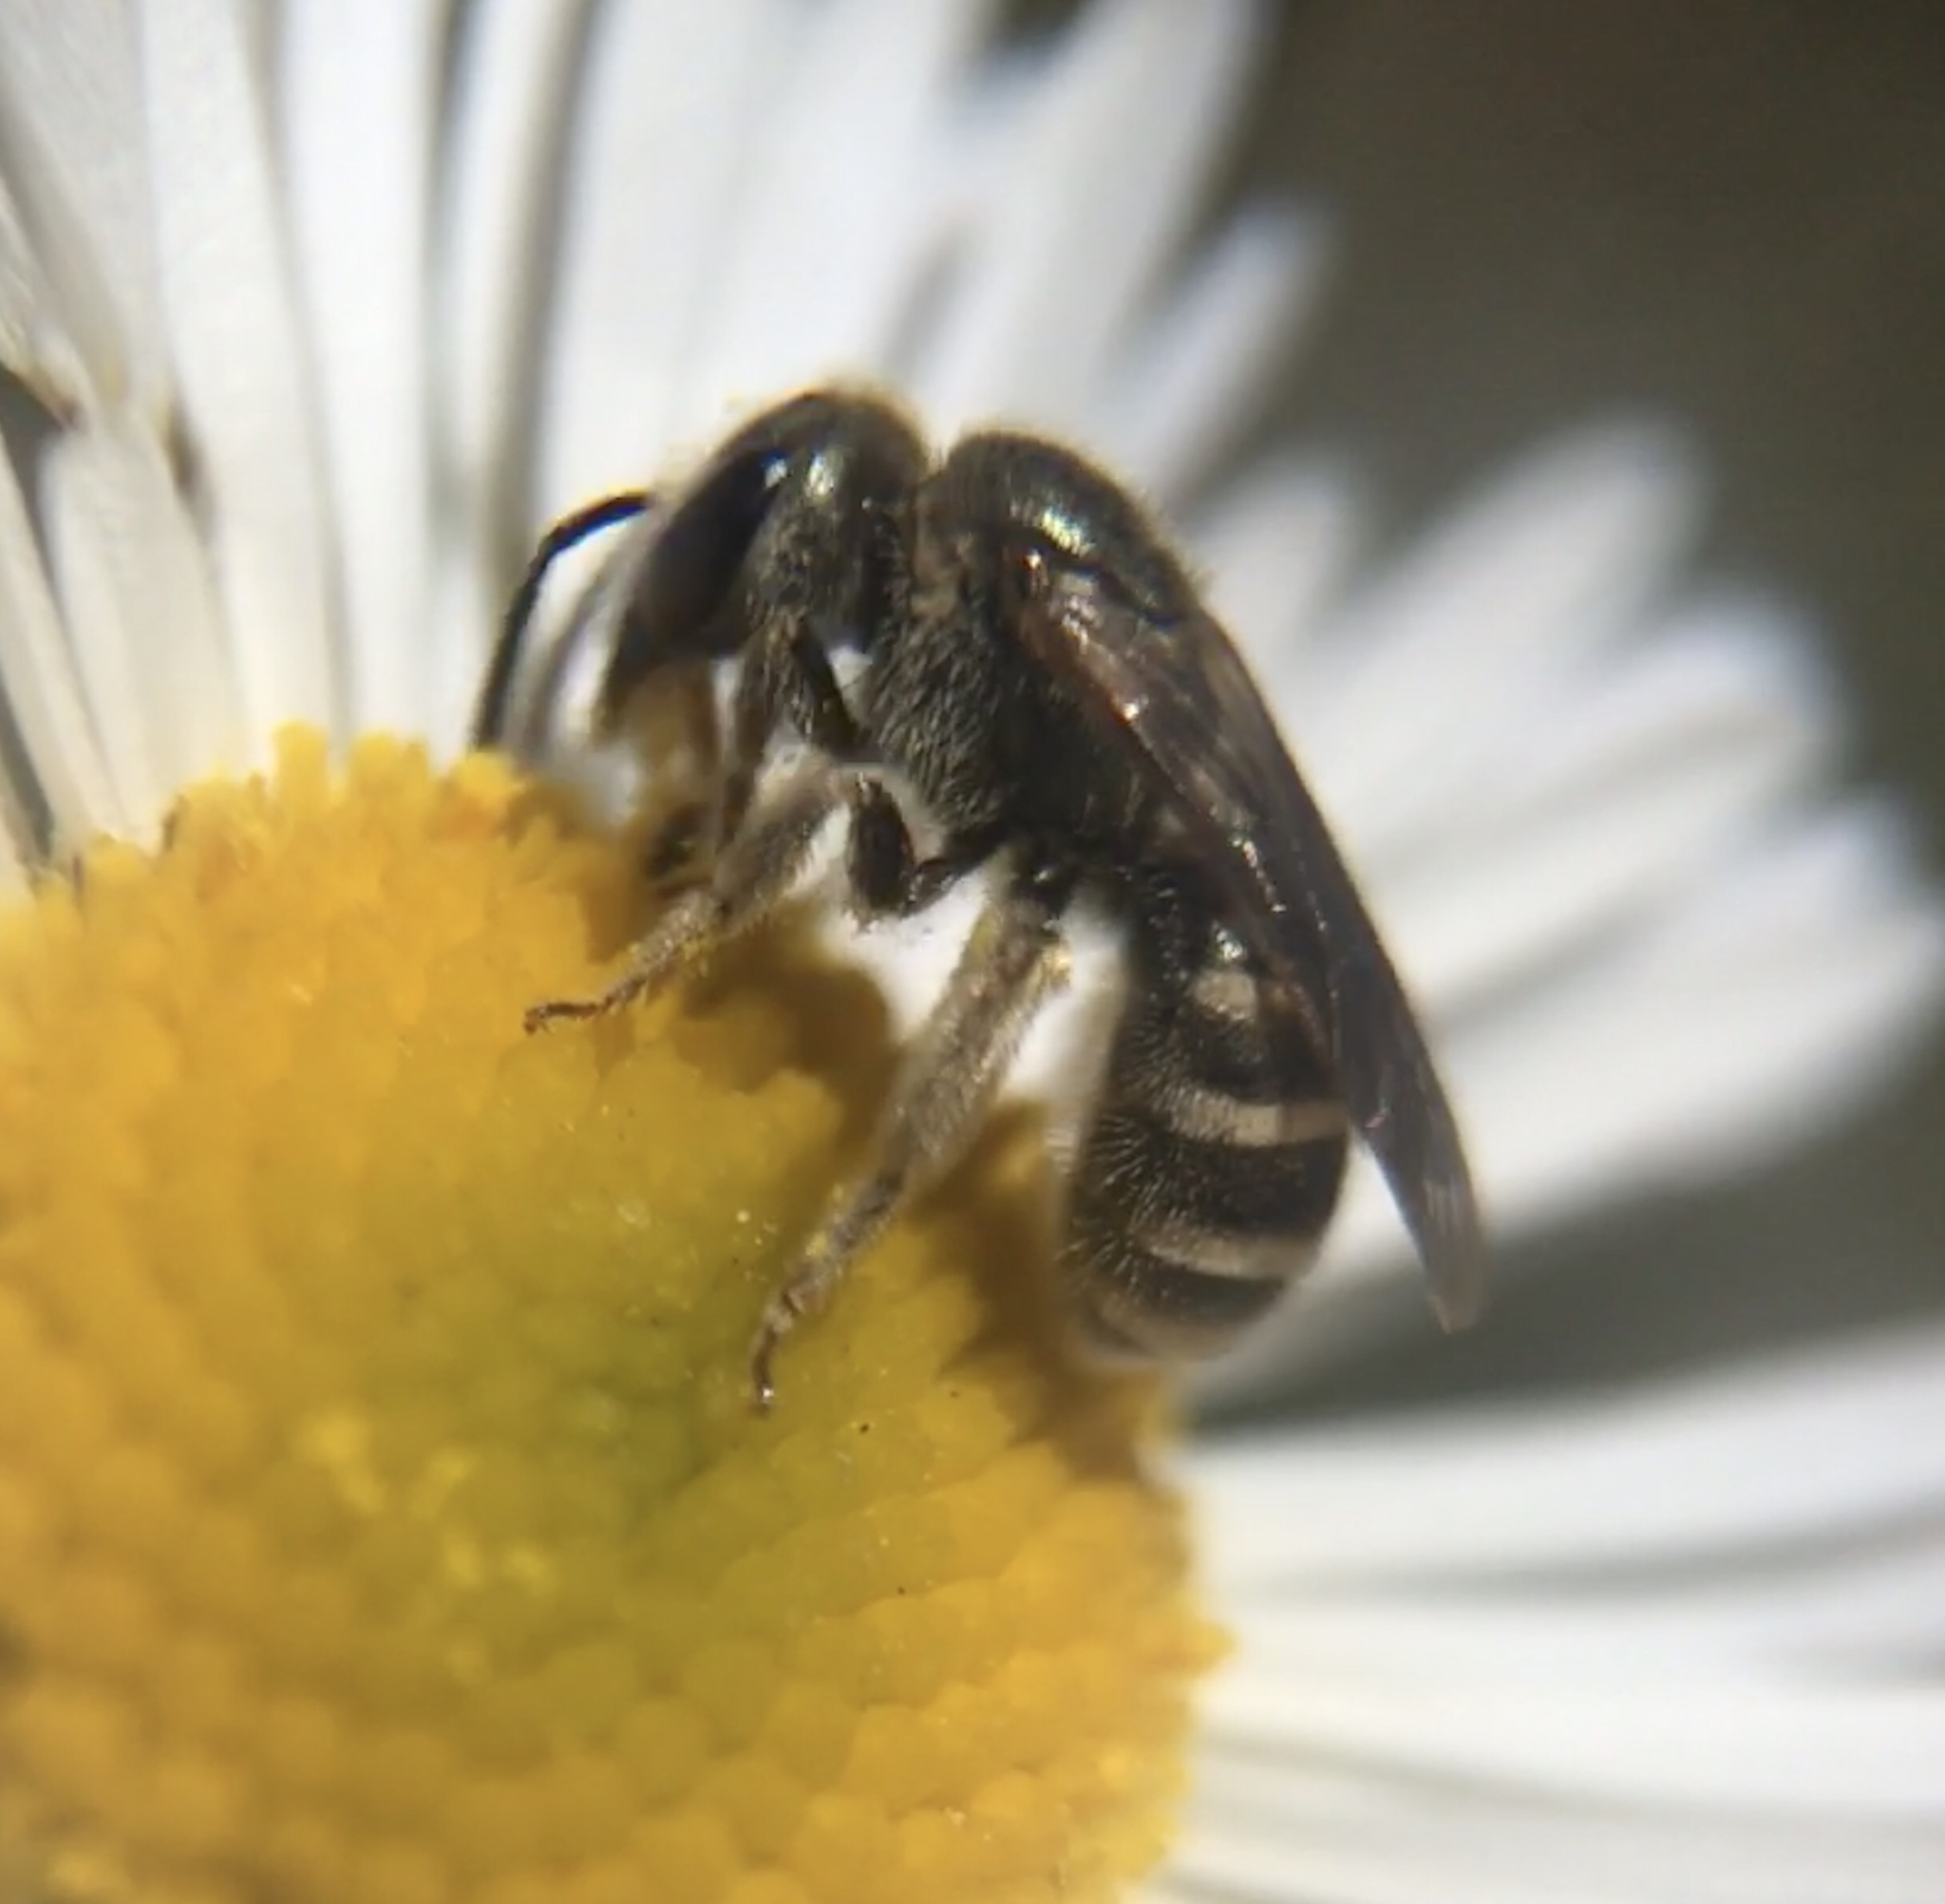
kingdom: Animalia
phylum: Arthropoda
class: Insecta
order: Hymenoptera
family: Halictidae
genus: Halictus
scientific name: Halictus tripartitus
